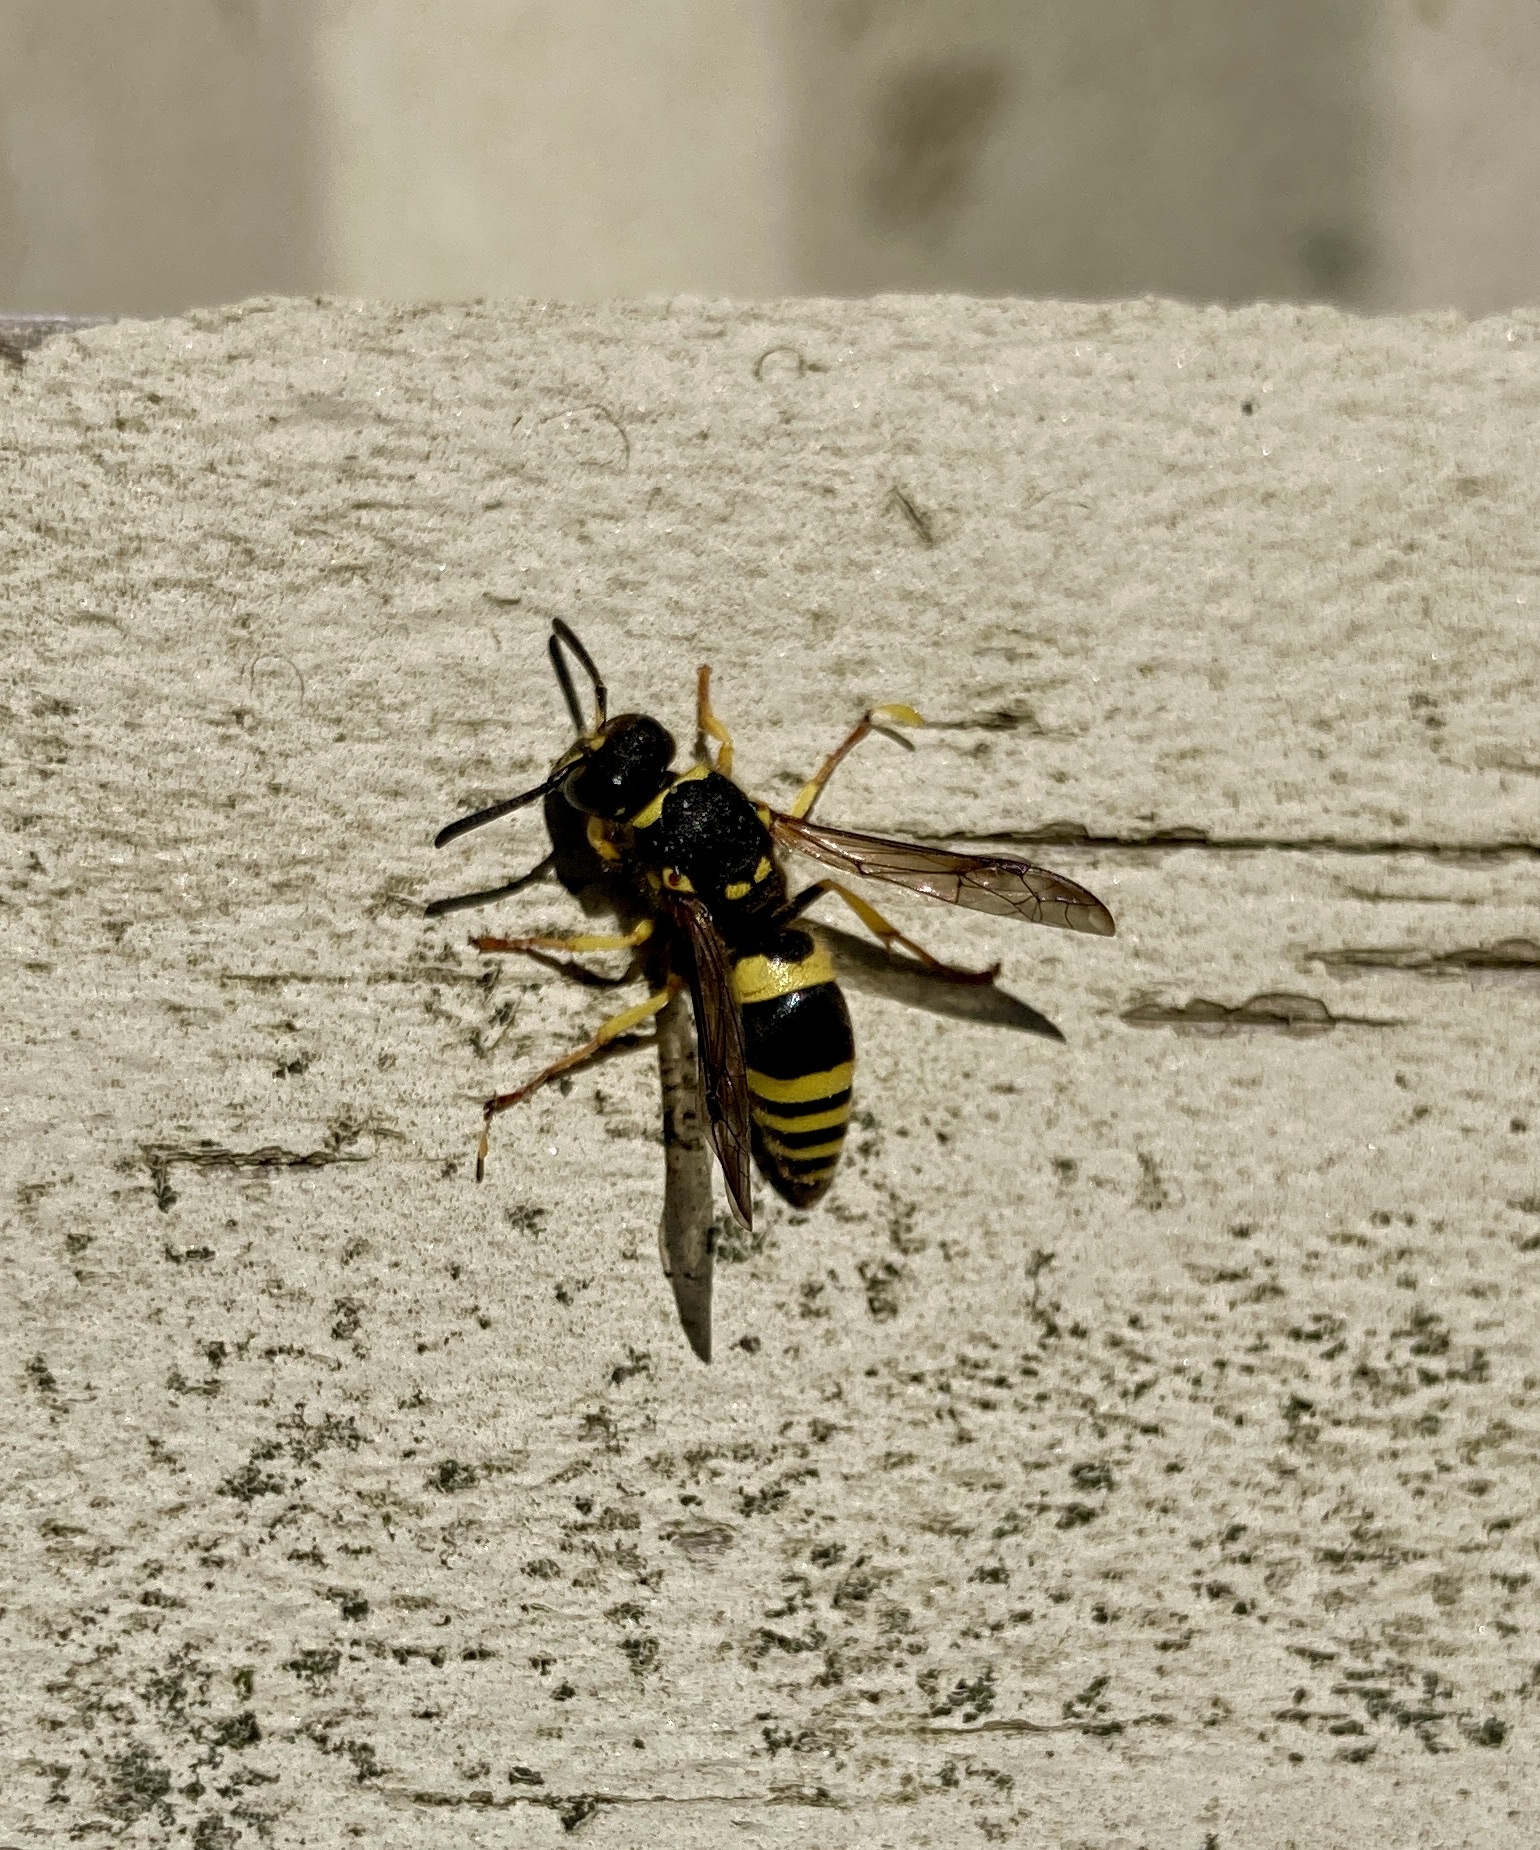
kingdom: Animalia
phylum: Arthropoda
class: Insecta
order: Hymenoptera
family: Vespidae
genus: Ancistrocerus
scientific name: Ancistrocerus gazella
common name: European tube wasp
